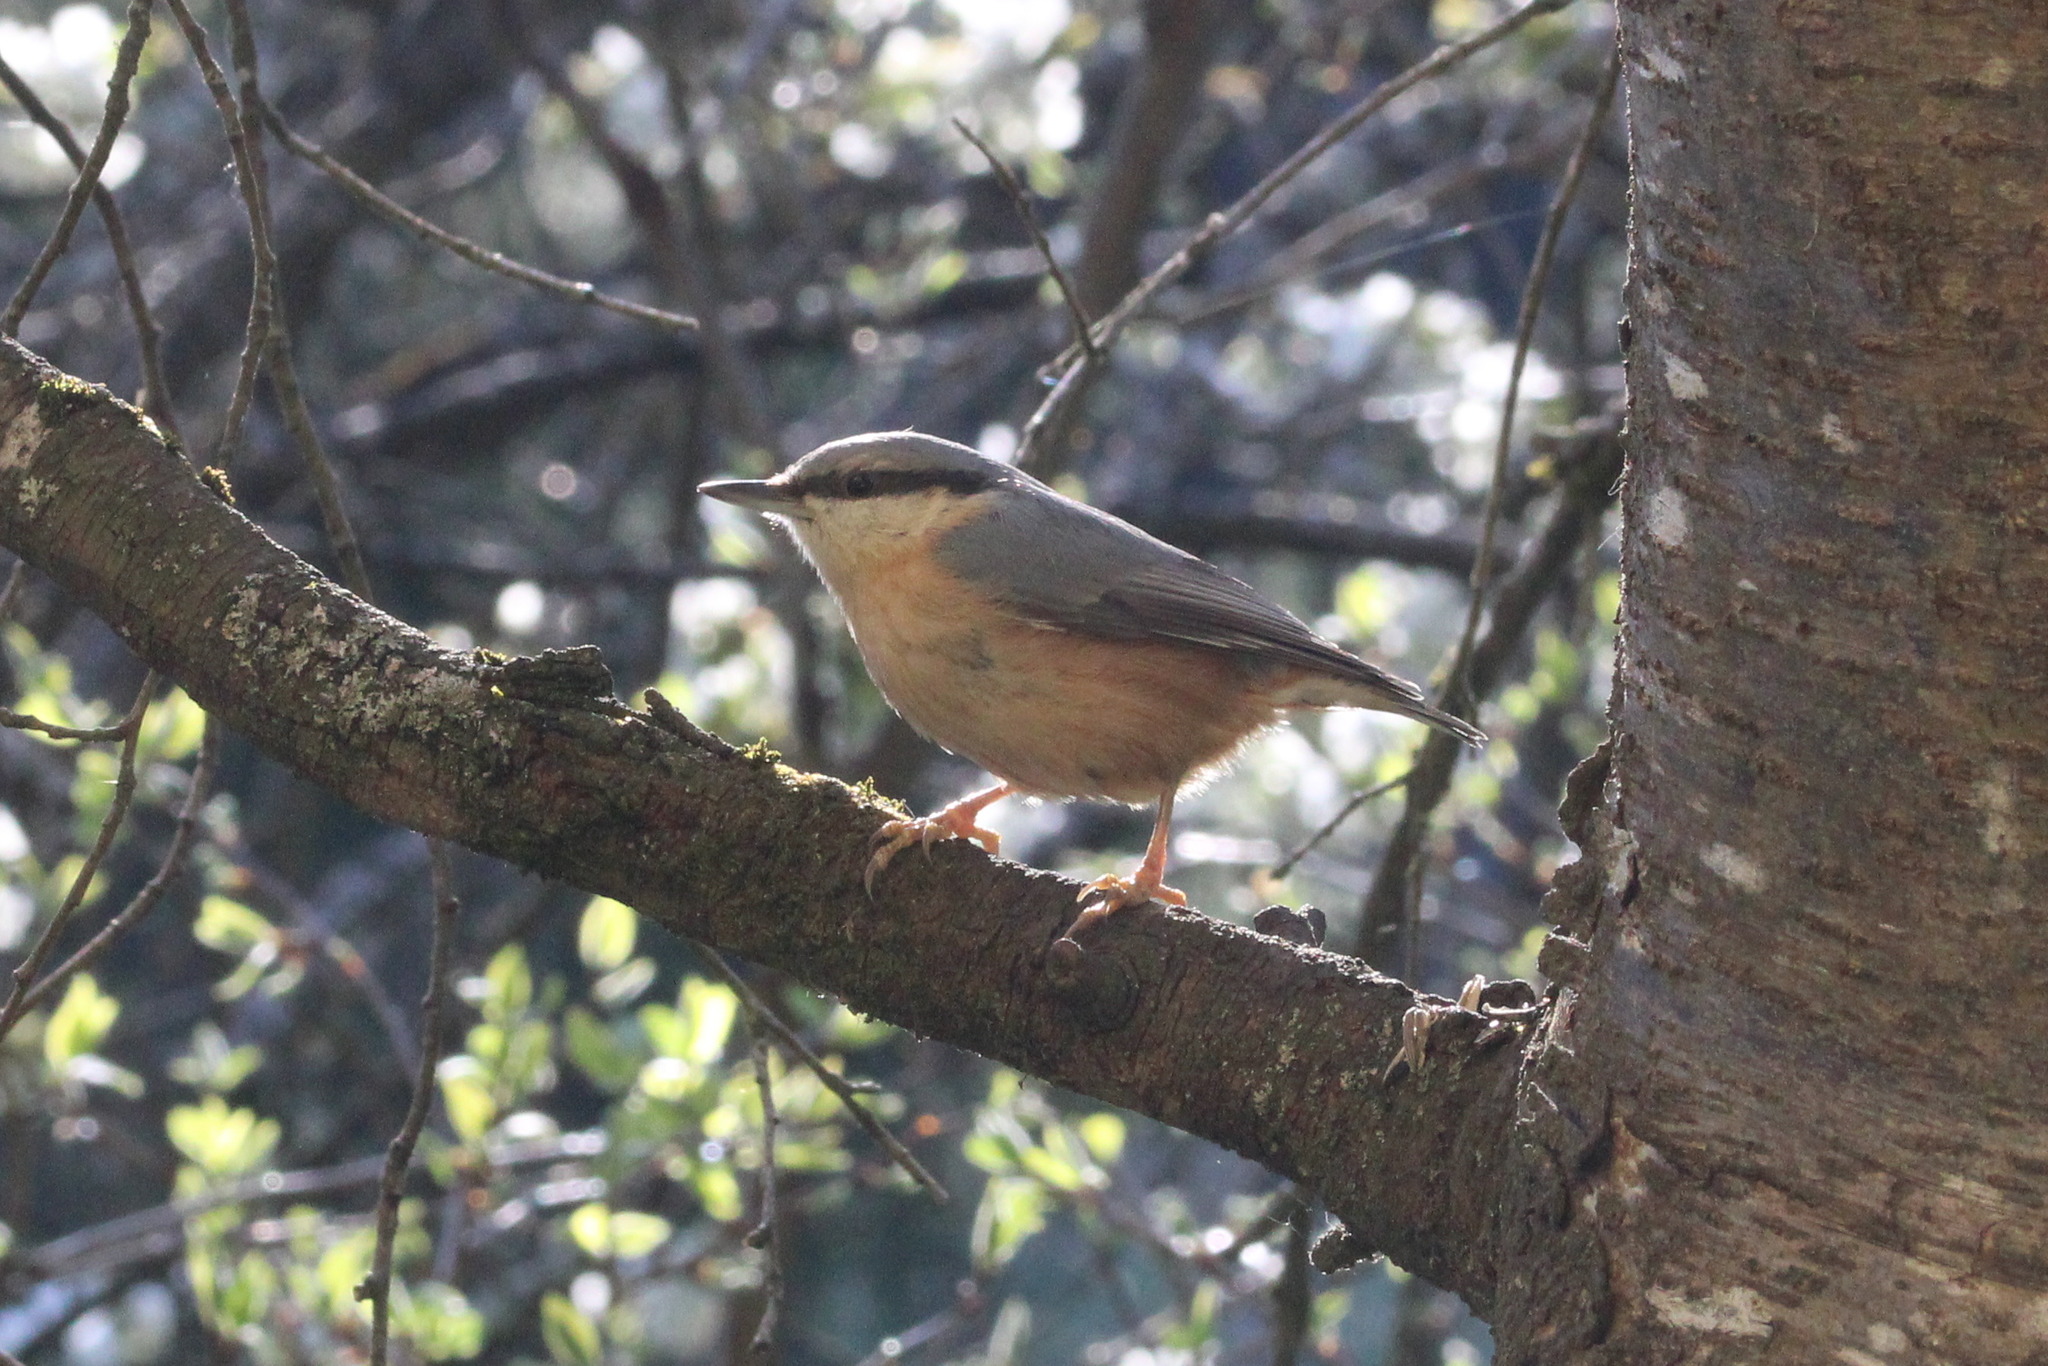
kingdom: Animalia
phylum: Chordata
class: Aves
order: Passeriformes
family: Sittidae
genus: Sitta
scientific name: Sitta europaea
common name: Eurasian nuthatch
